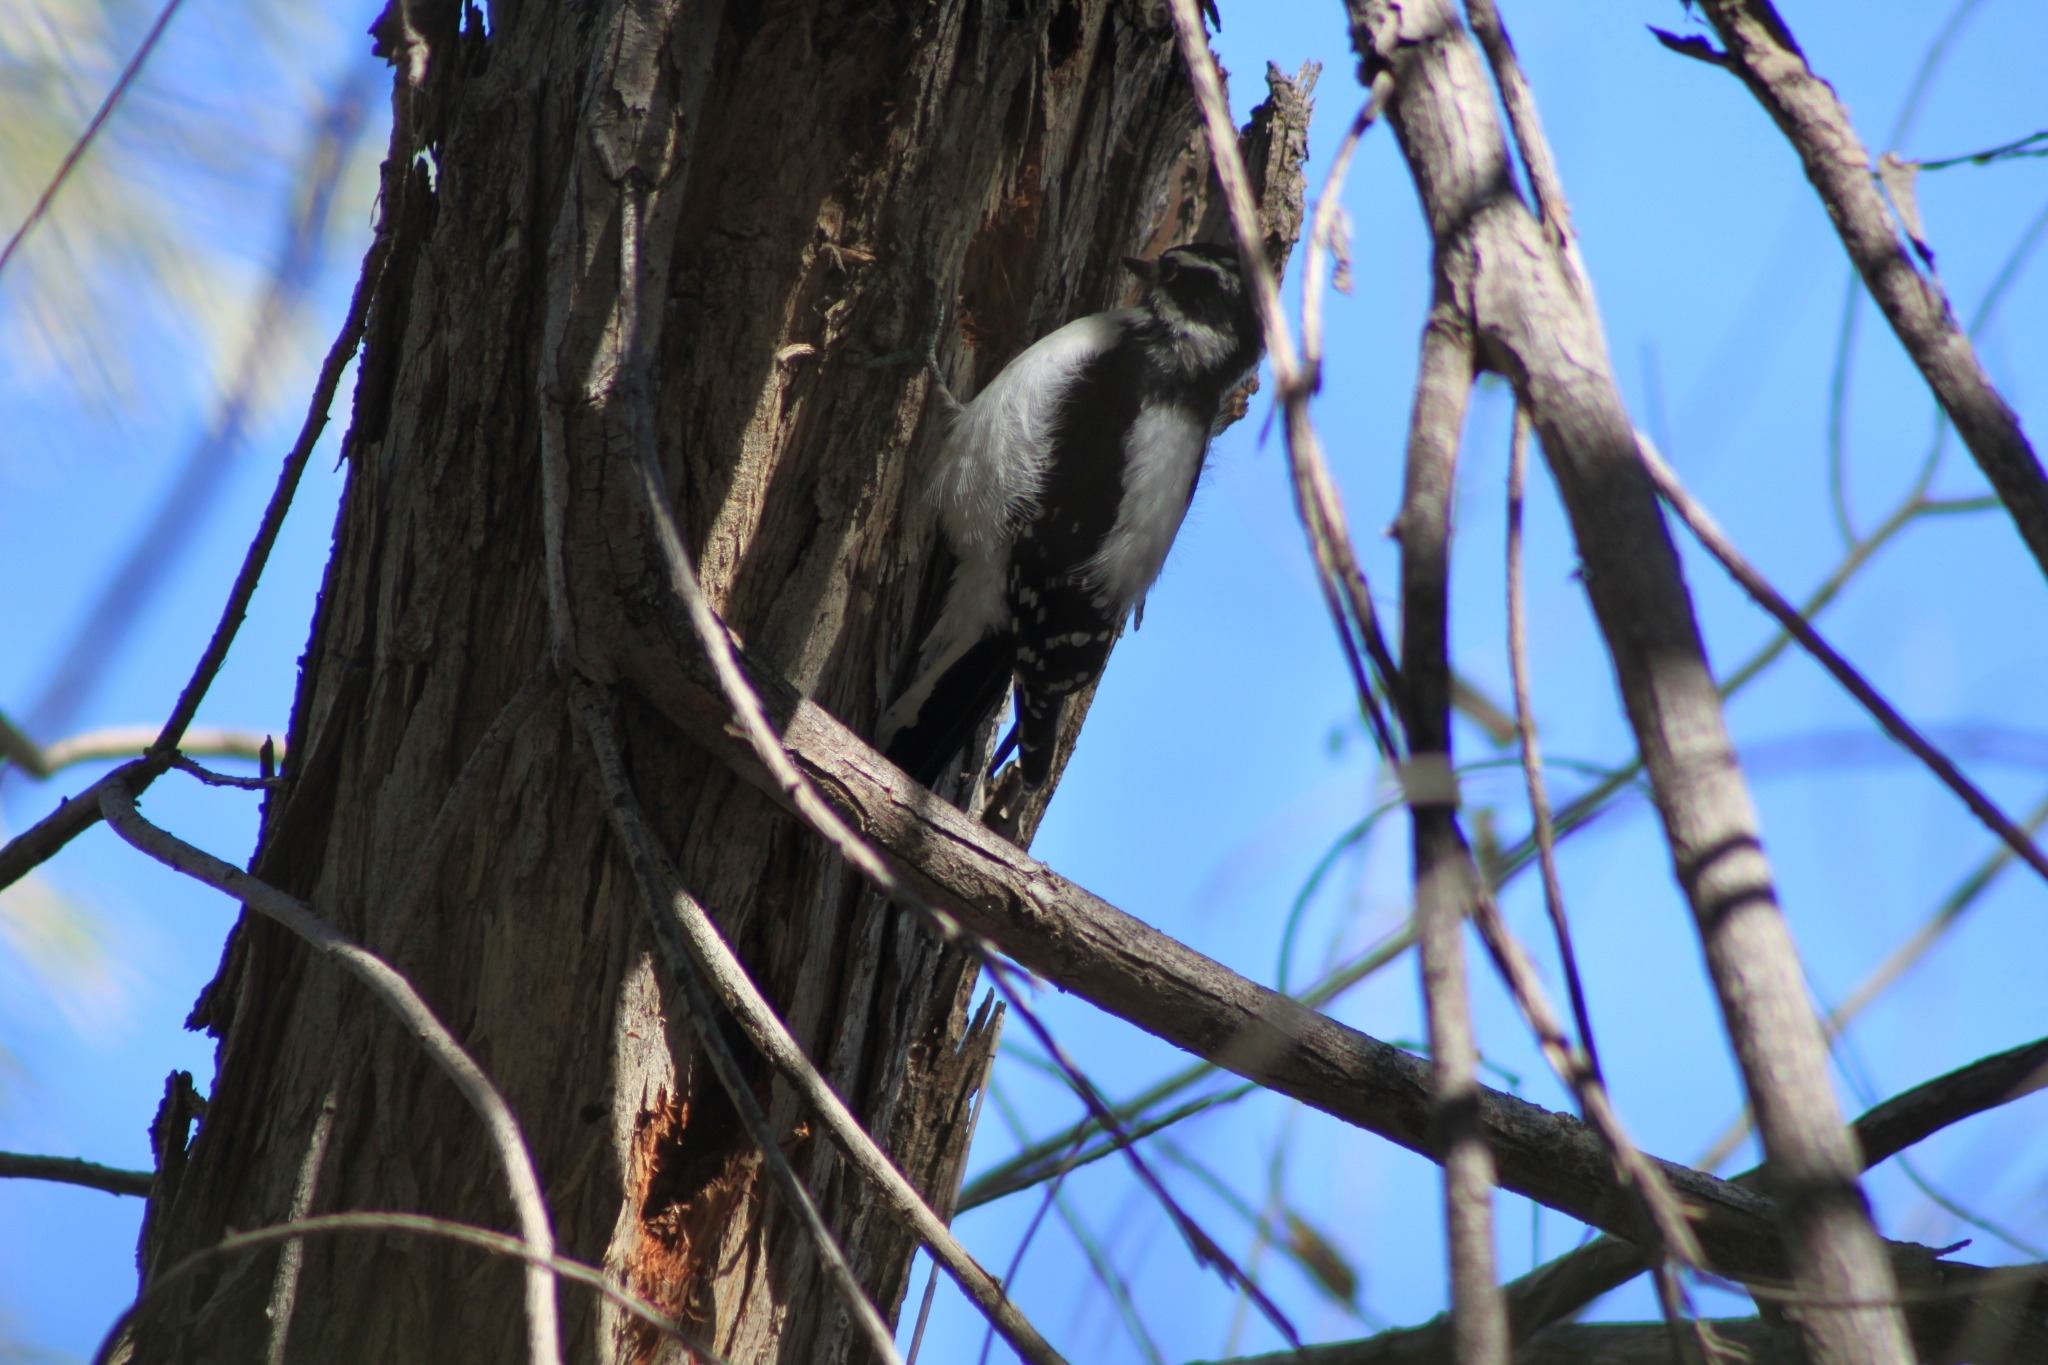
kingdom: Animalia
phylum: Chordata
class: Aves
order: Piciformes
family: Picidae
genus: Dryobates
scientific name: Dryobates pubescens
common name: Downy woodpecker
